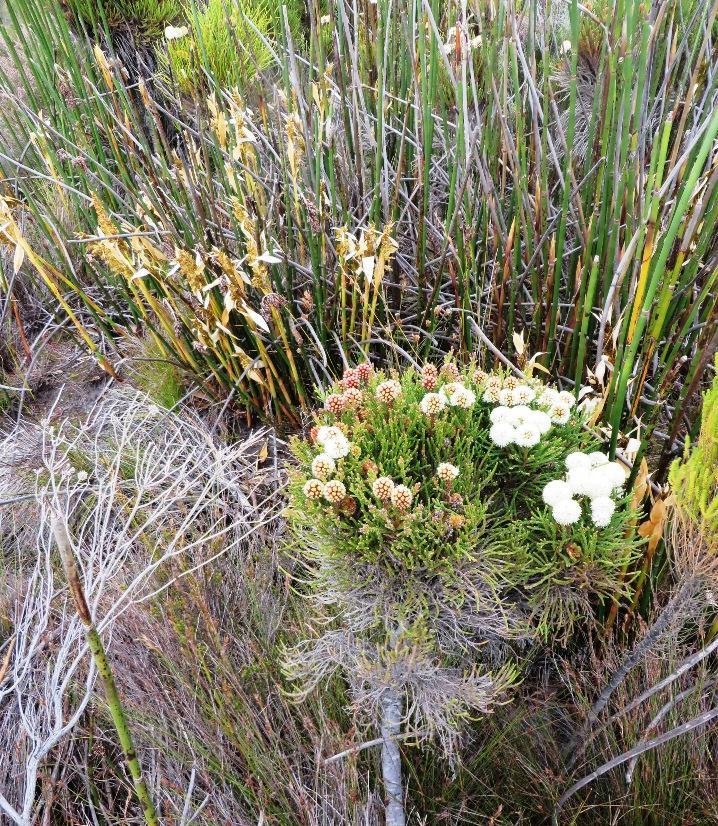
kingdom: Plantae
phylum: Tracheophyta
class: Liliopsida
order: Poales
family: Restionaceae
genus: Elegia
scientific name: Elegia mucronata
